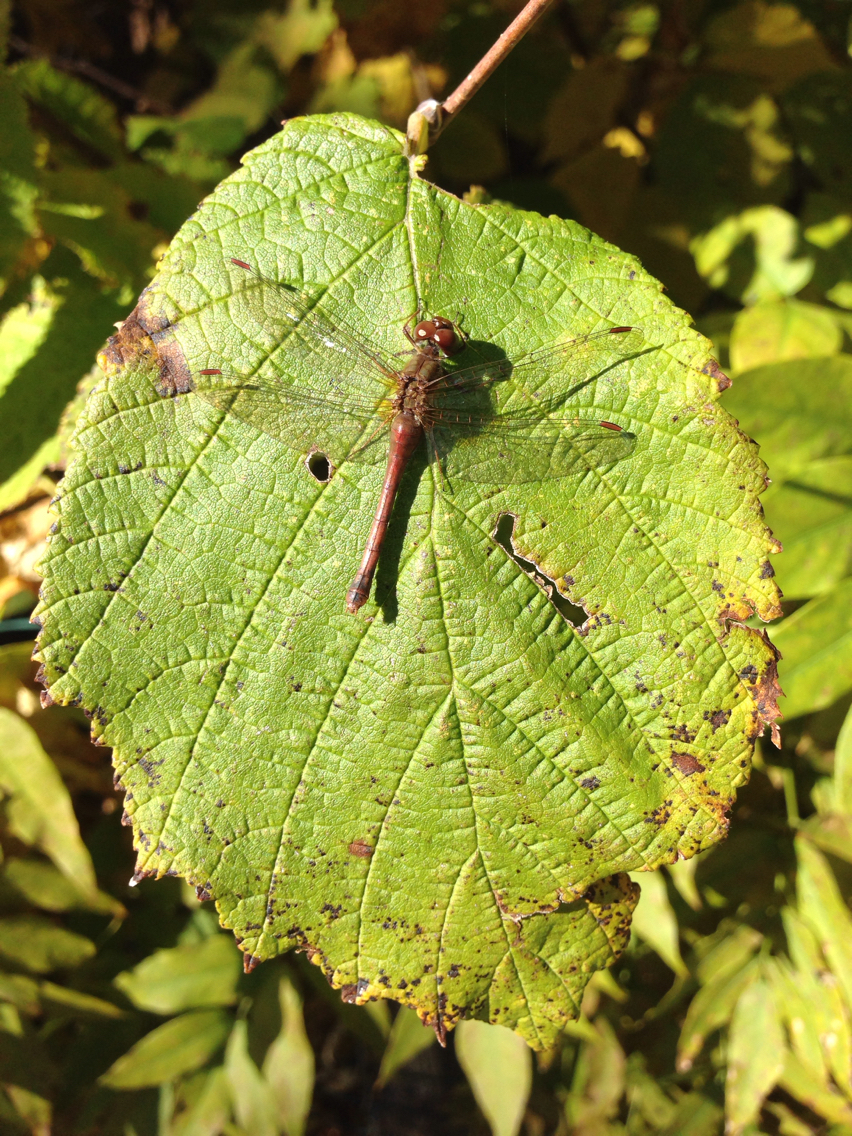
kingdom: Animalia
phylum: Arthropoda
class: Insecta
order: Odonata
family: Libellulidae
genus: Sympetrum
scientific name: Sympetrum vicinum
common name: Autumn meadowhawk
